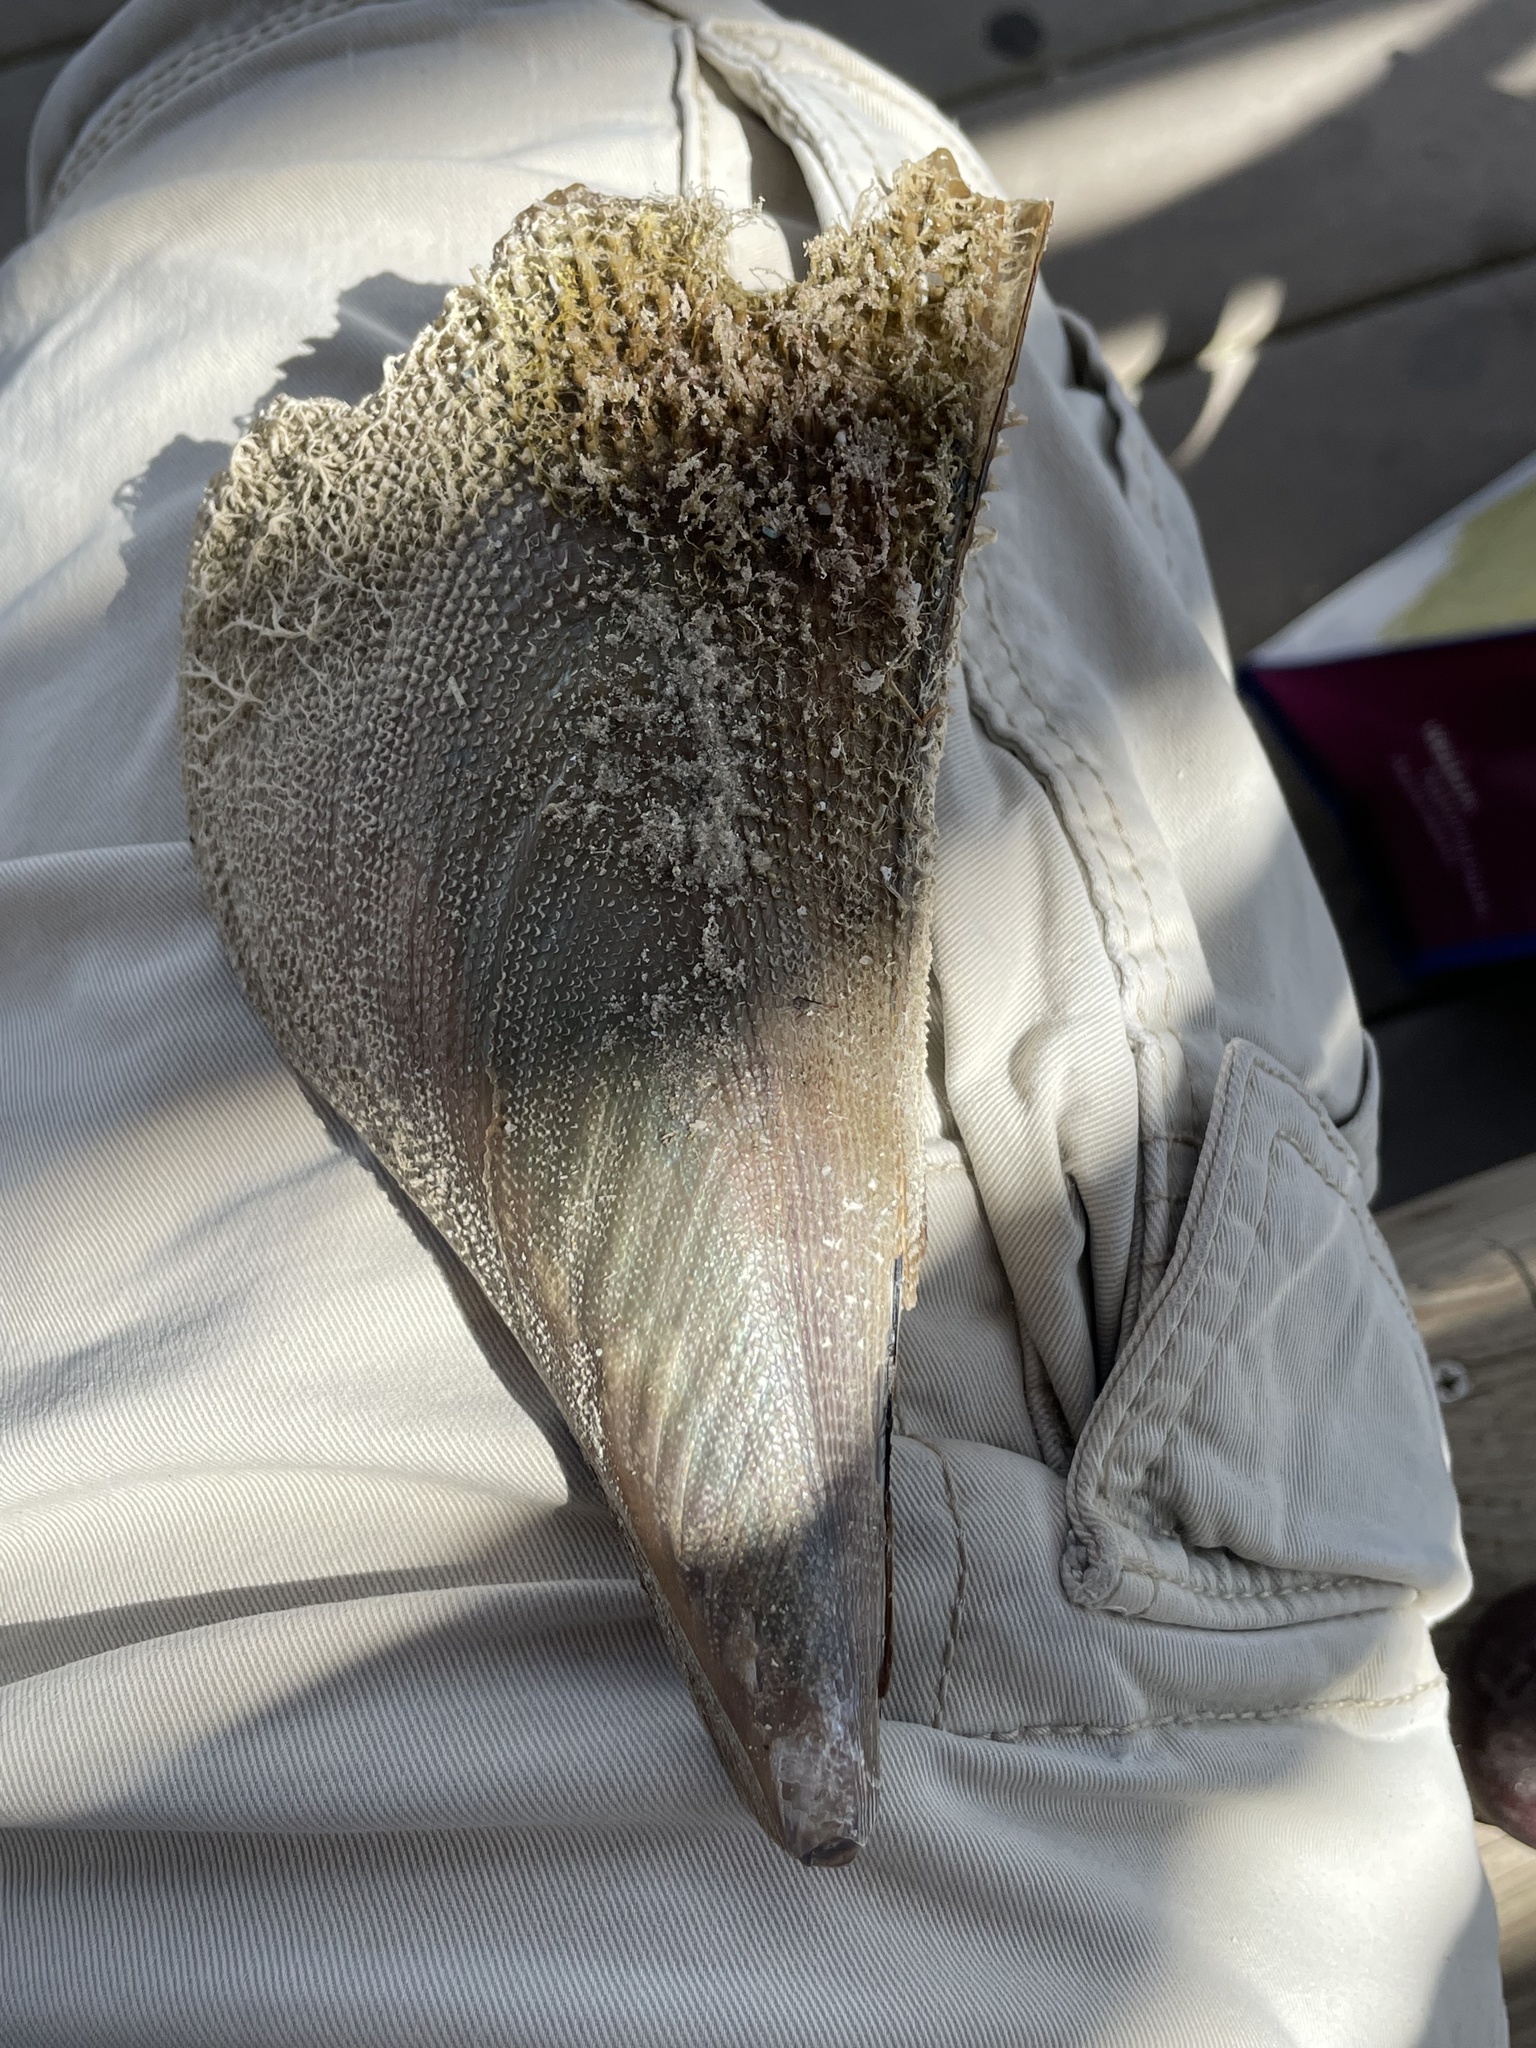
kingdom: Animalia
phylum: Mollusca
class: Bivalvia
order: Ostreida
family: Pinnidae
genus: Atrina
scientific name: Atrina serrata
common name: Saw-toothed penshell
